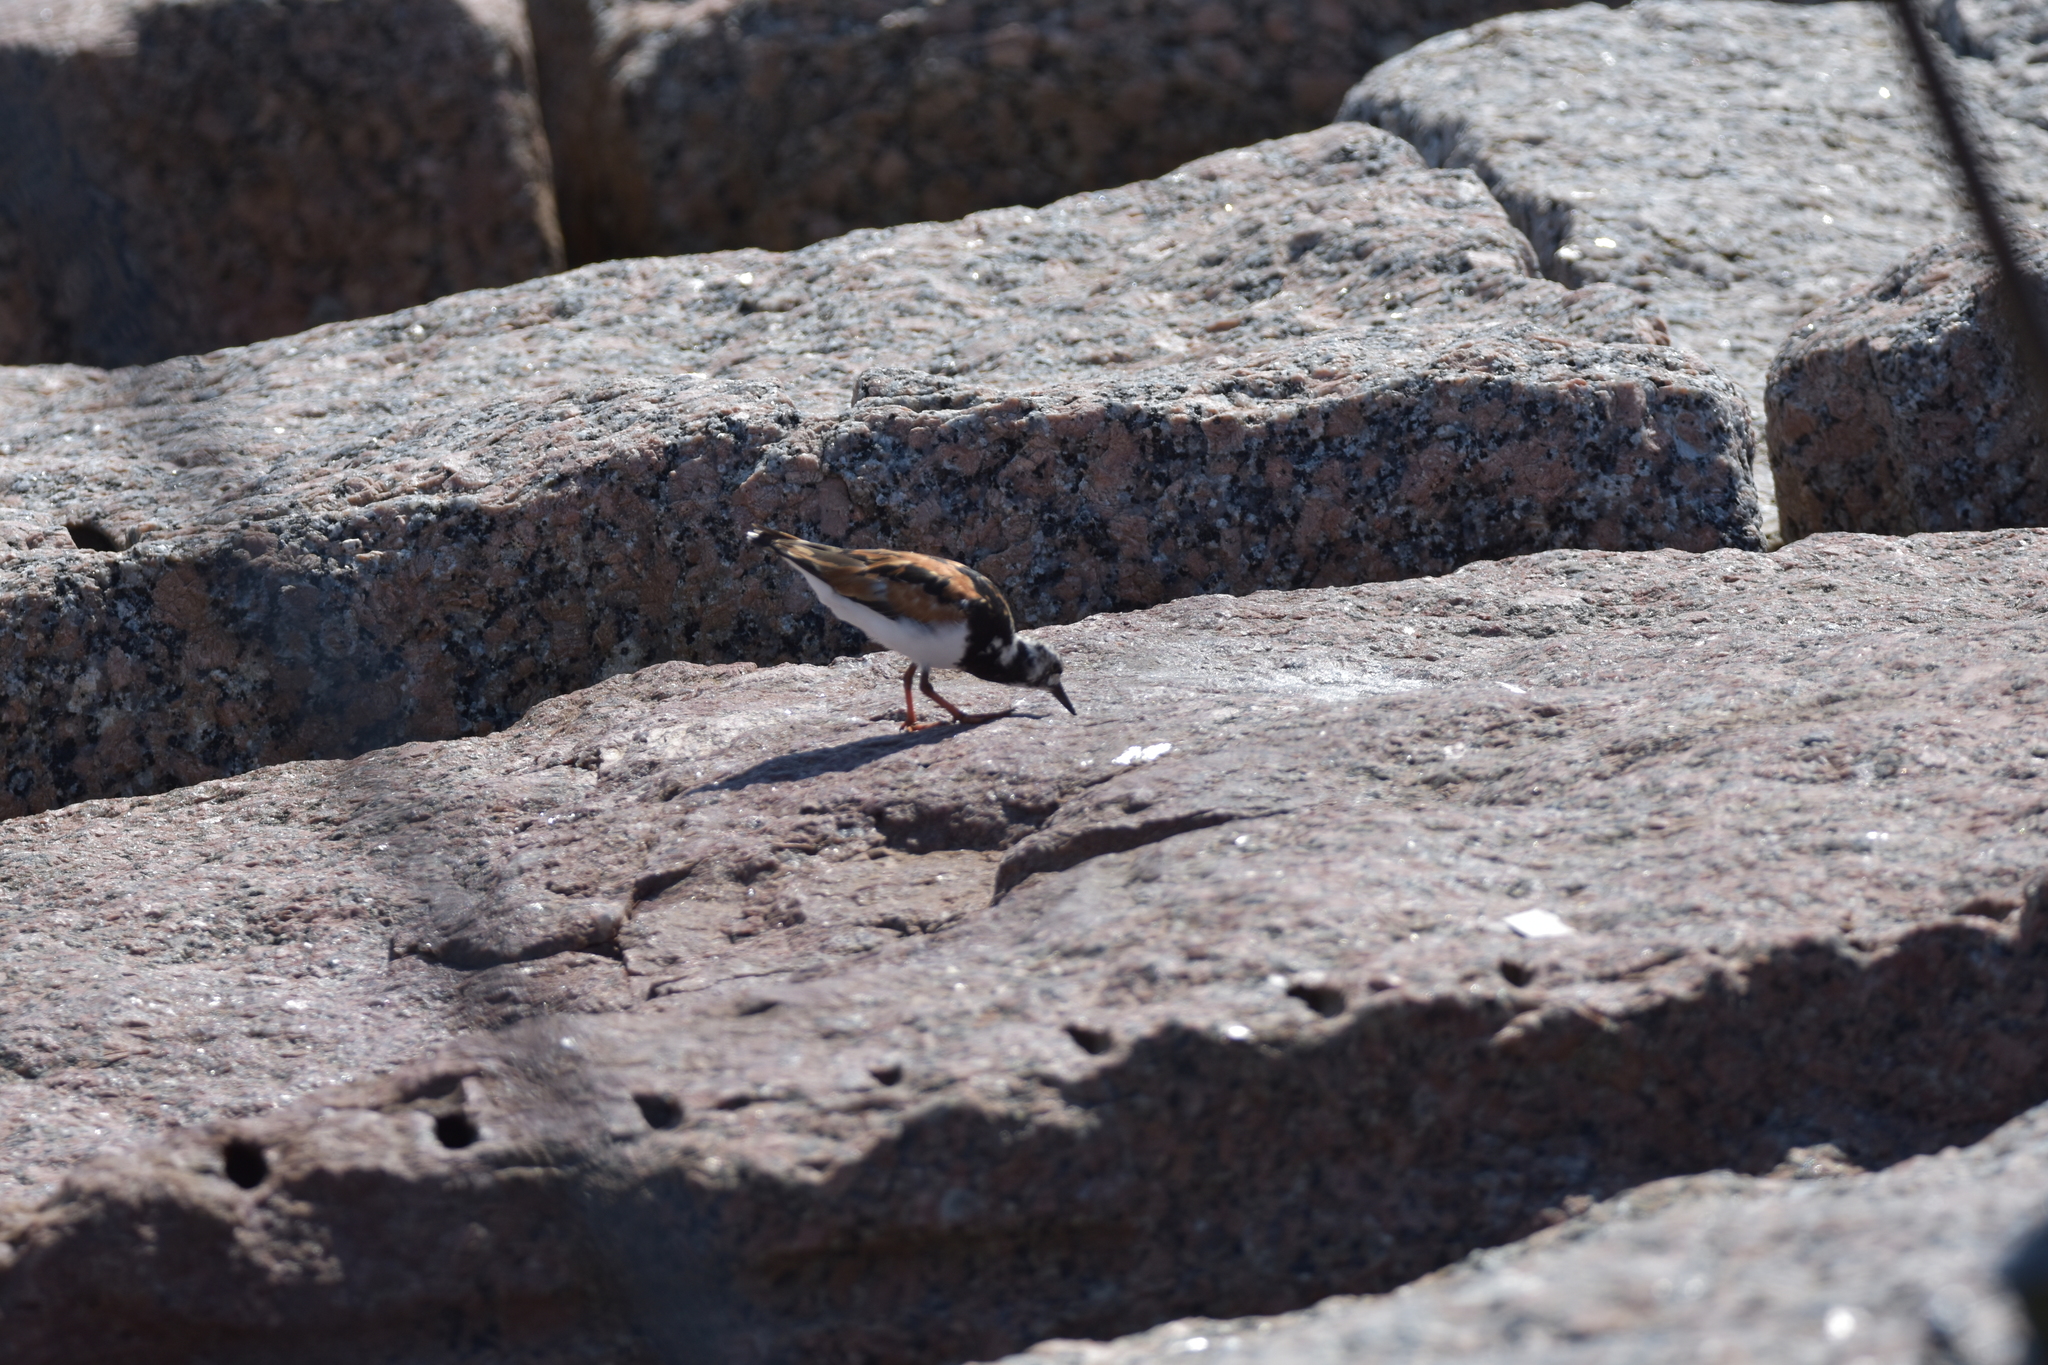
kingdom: Animalia
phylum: Chordata
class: Aves
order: Charadriiformes
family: Scolopacidae
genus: Arenaria
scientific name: Arenaria interpres
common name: Ruddy turnstone
